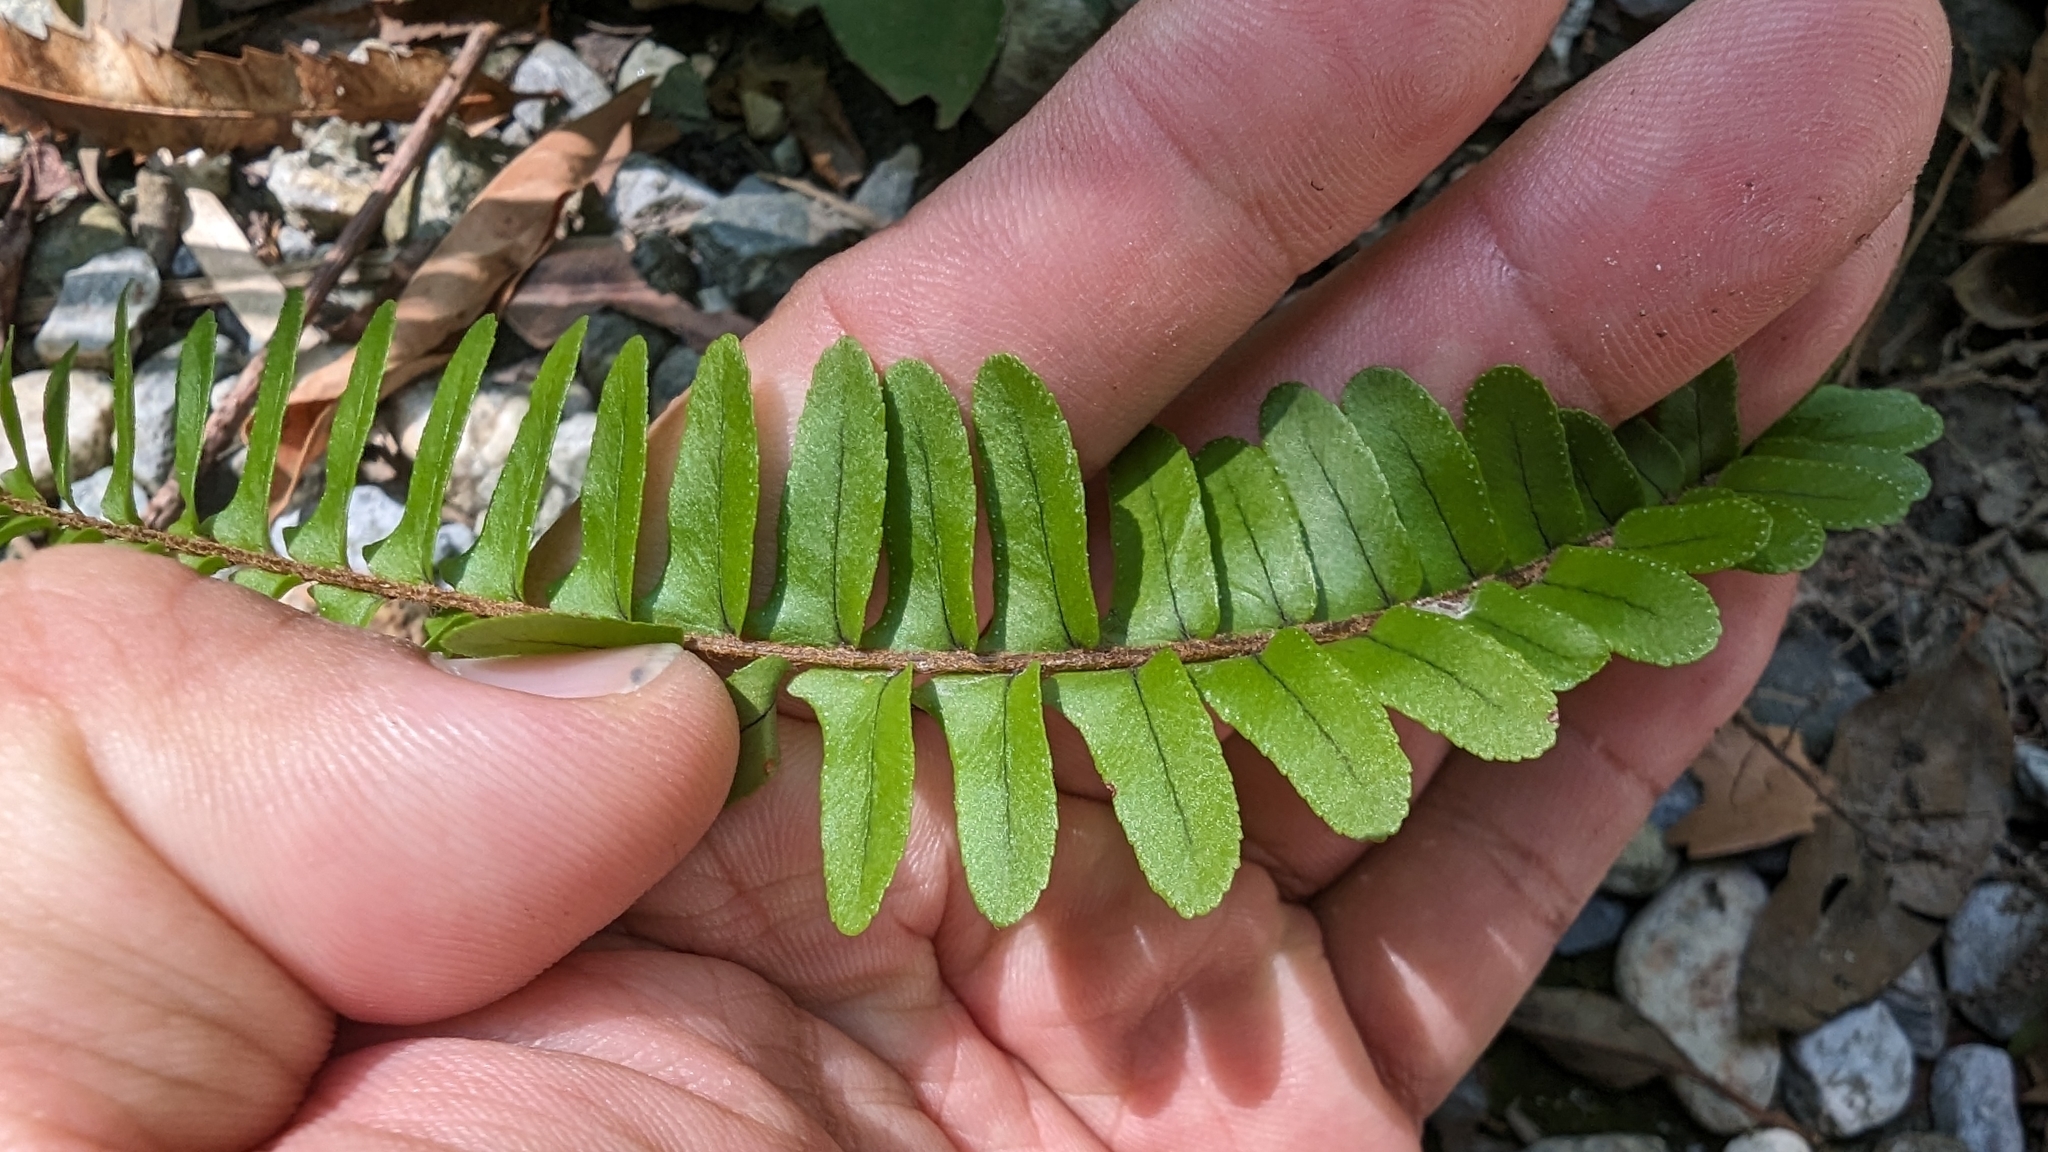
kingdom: Plantae
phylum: Tracheophyta
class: Polypodiopsida
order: Polypodiales
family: Nephrolepidaceae
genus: Nephrolepis
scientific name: Nephrolepis cordifolia
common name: Narrow swordfern
